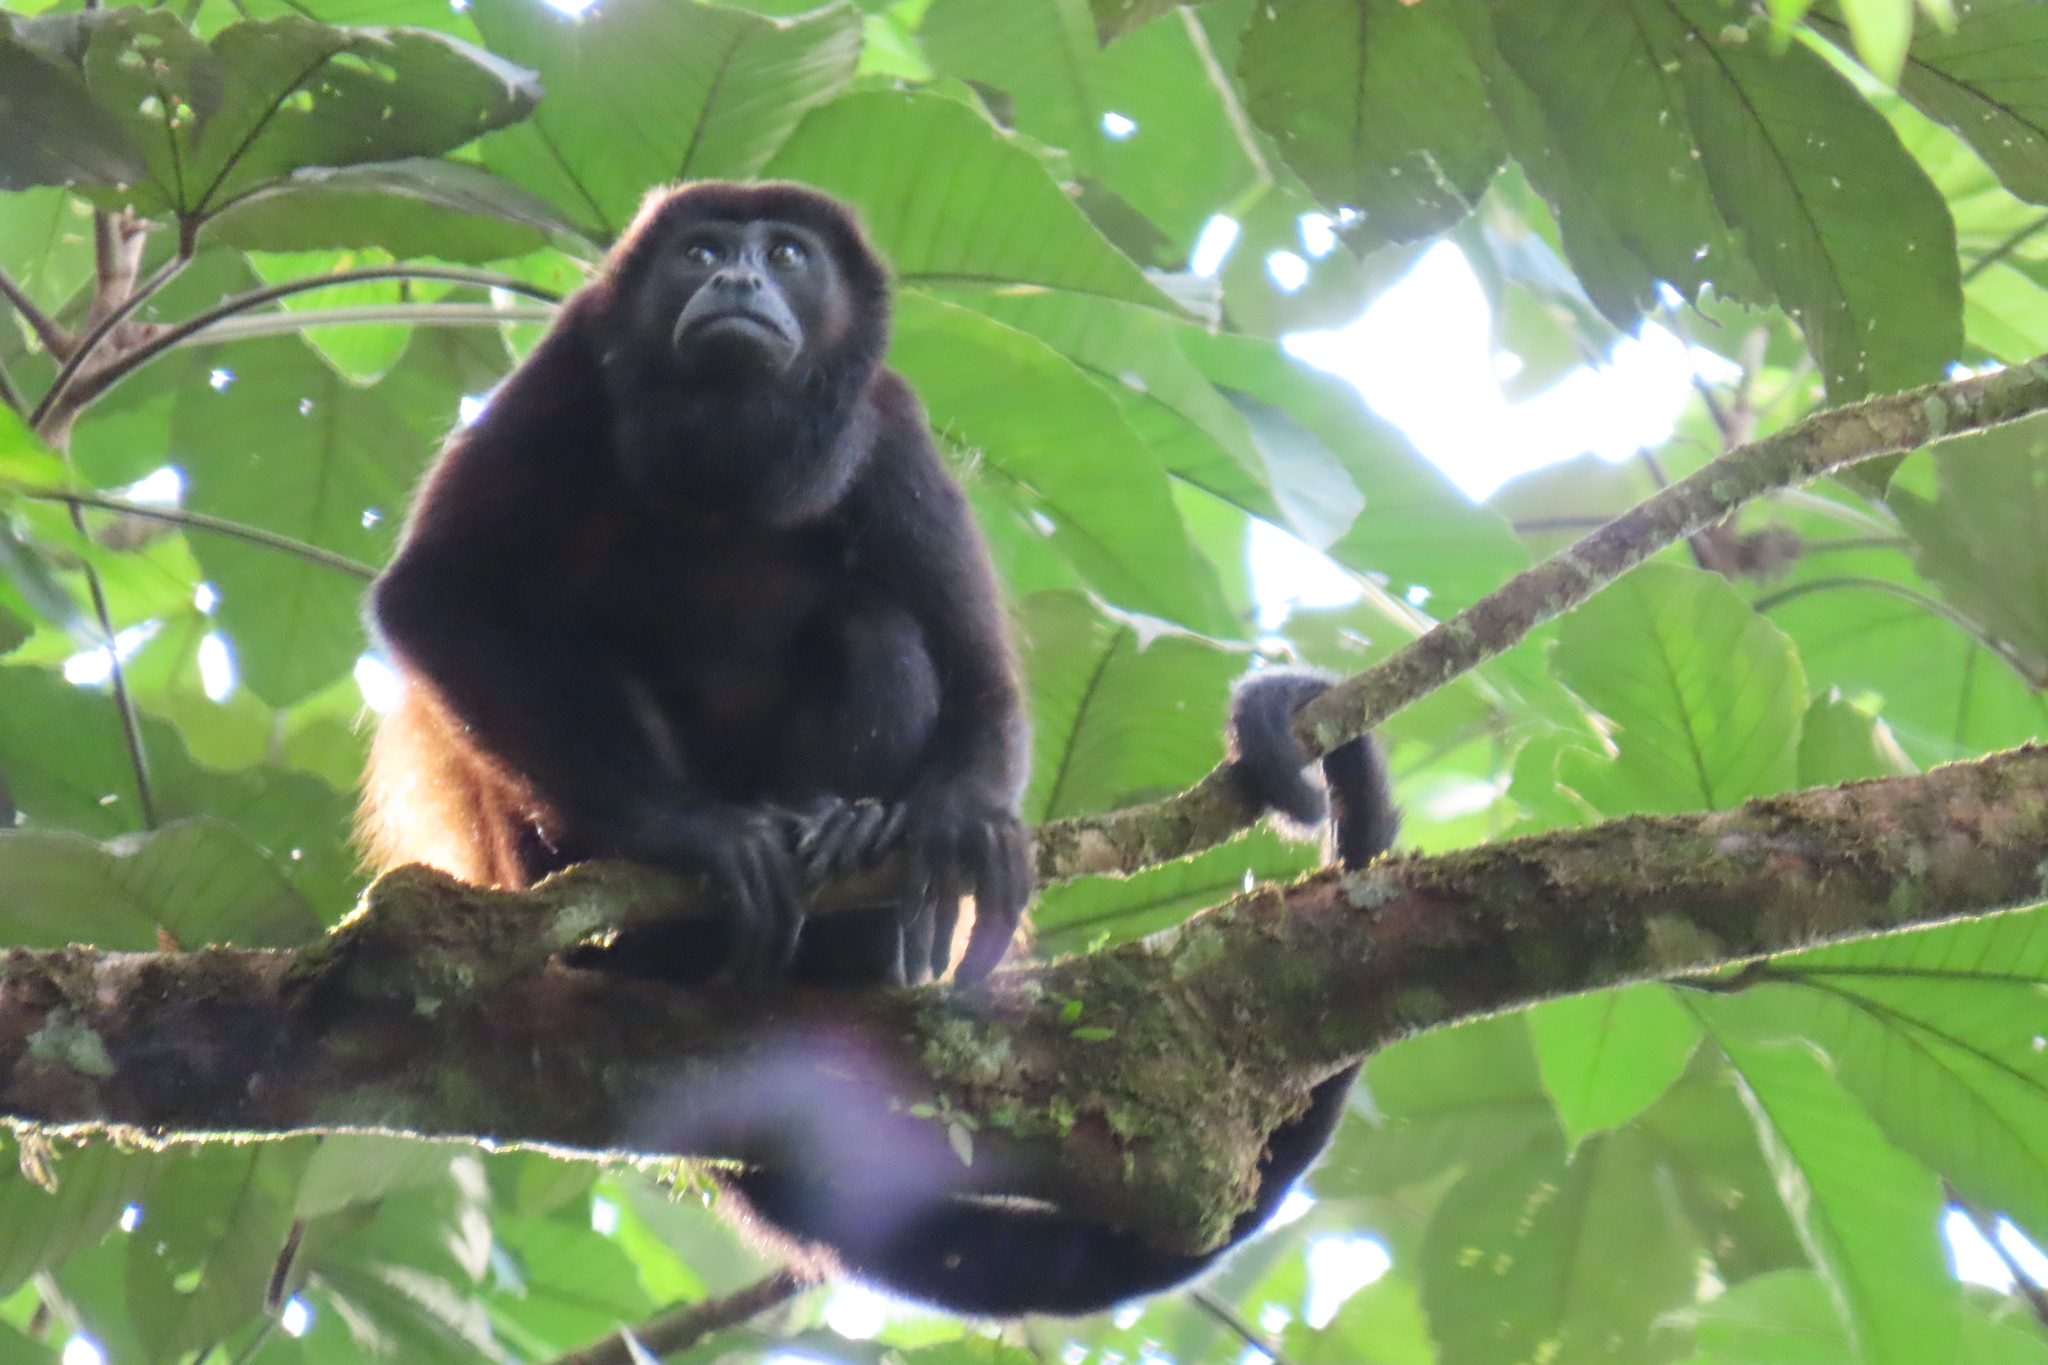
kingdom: Animalia
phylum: Chordata
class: Mammalia
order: Primates
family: Atelidae
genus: Alouatta
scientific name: Alouatta palliata
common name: Mantled howler
